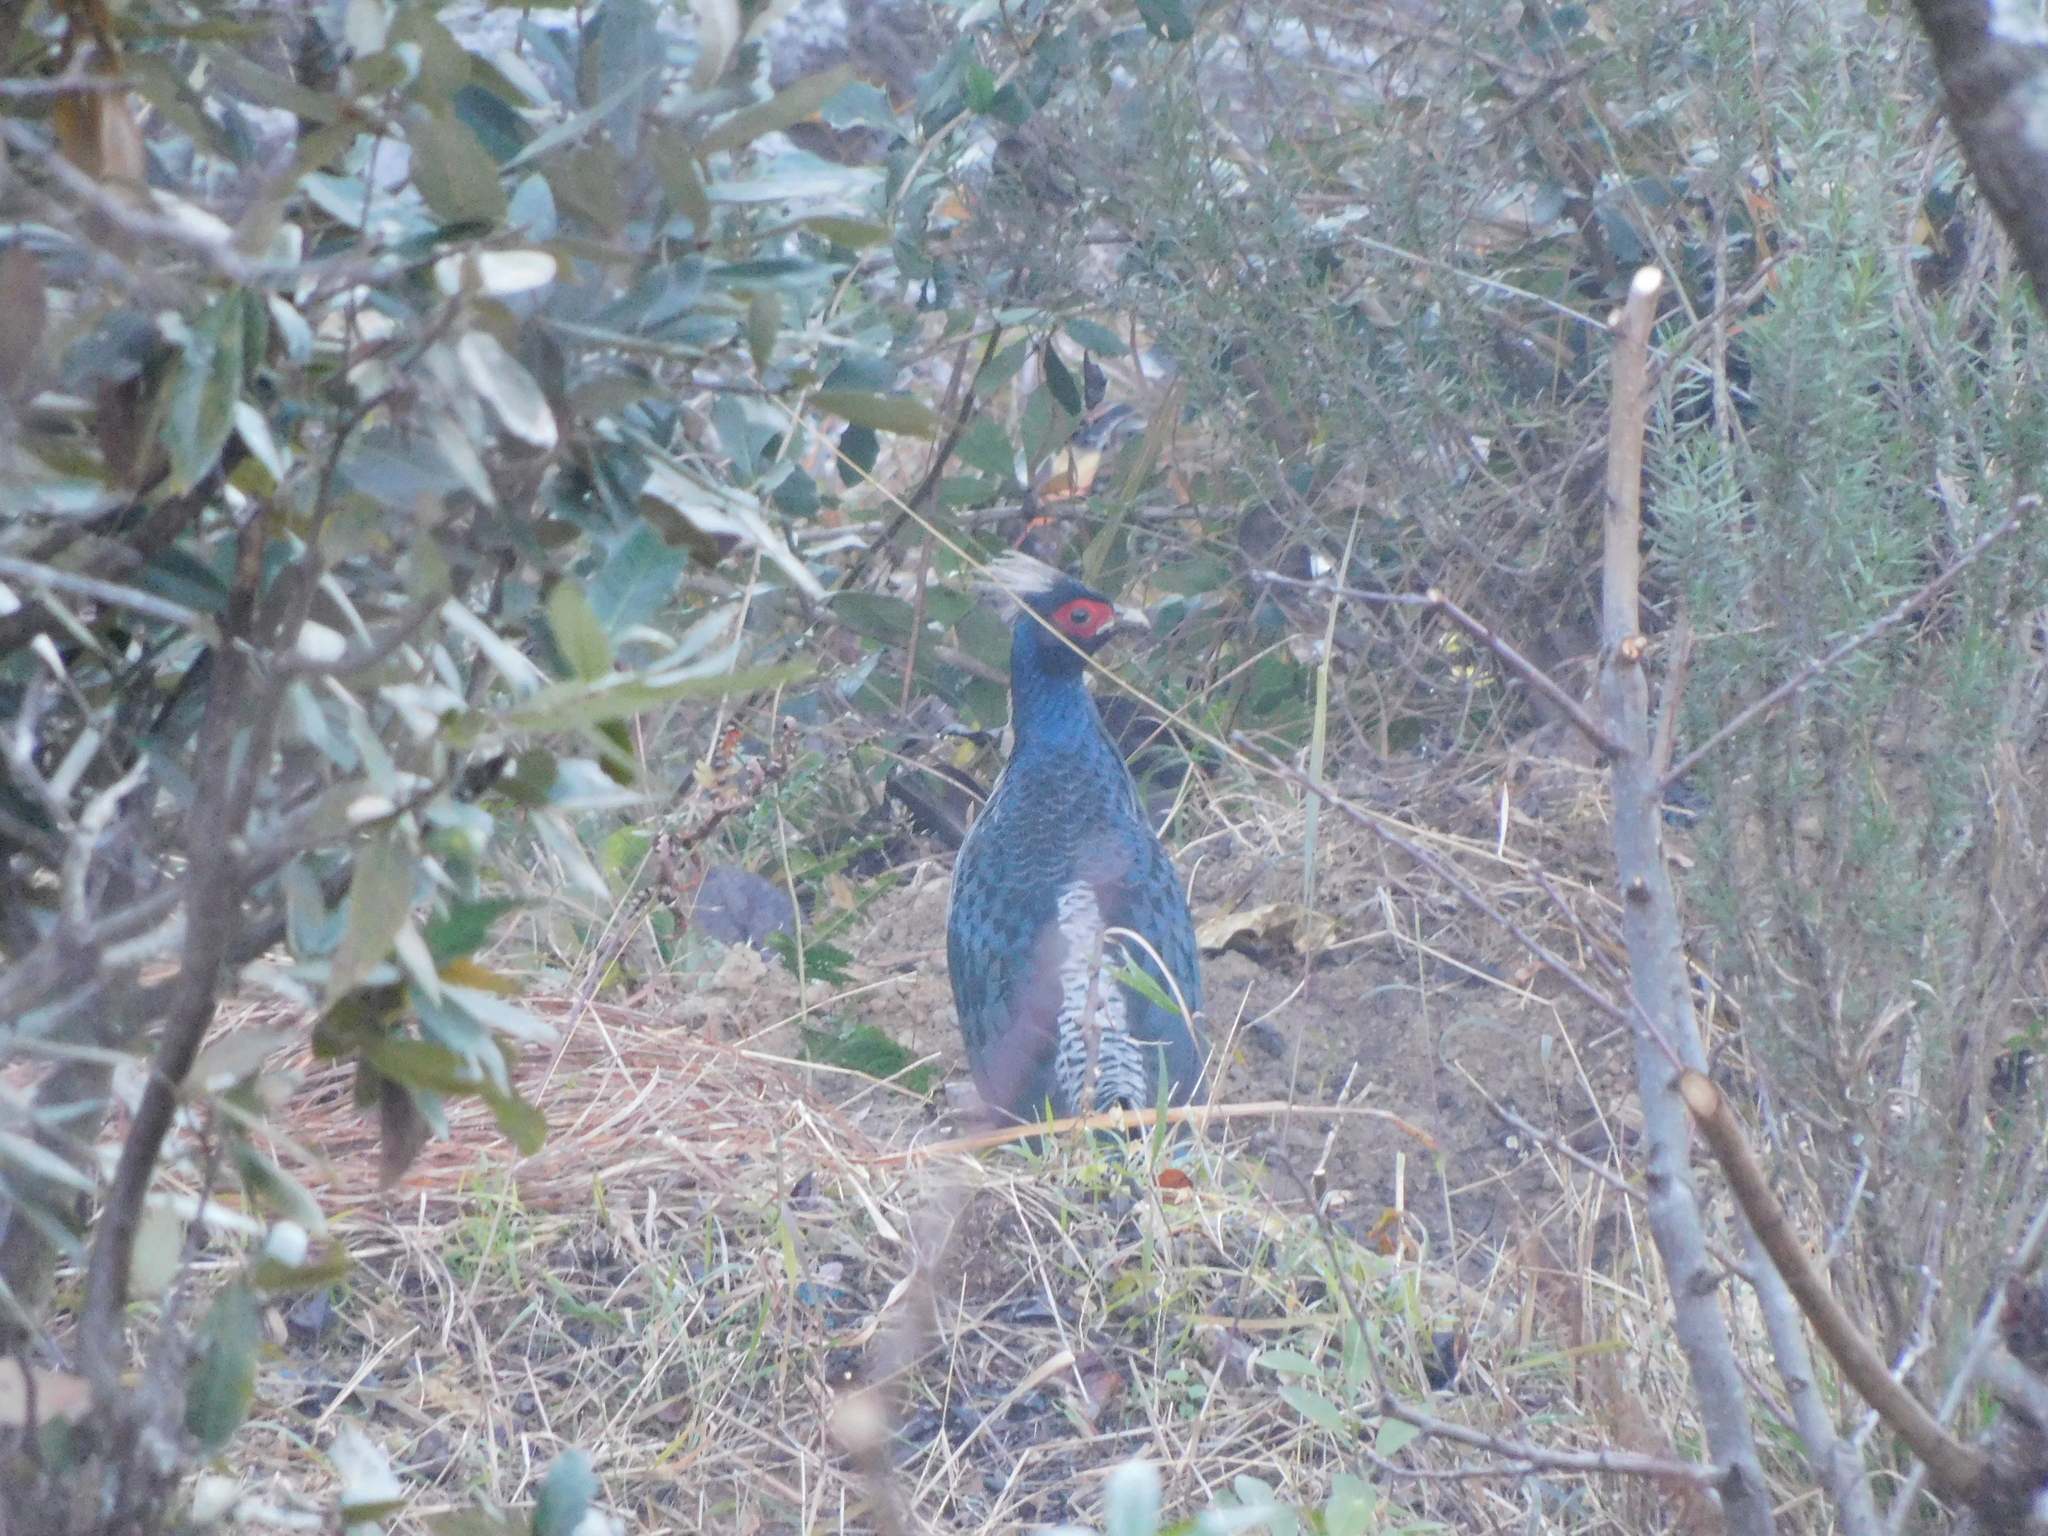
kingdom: Animalia
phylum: Chordata
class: Aves
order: Galliformes
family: Phasianidae
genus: Lophura
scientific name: Lophura leucomelanos
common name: Kalij pheasant
